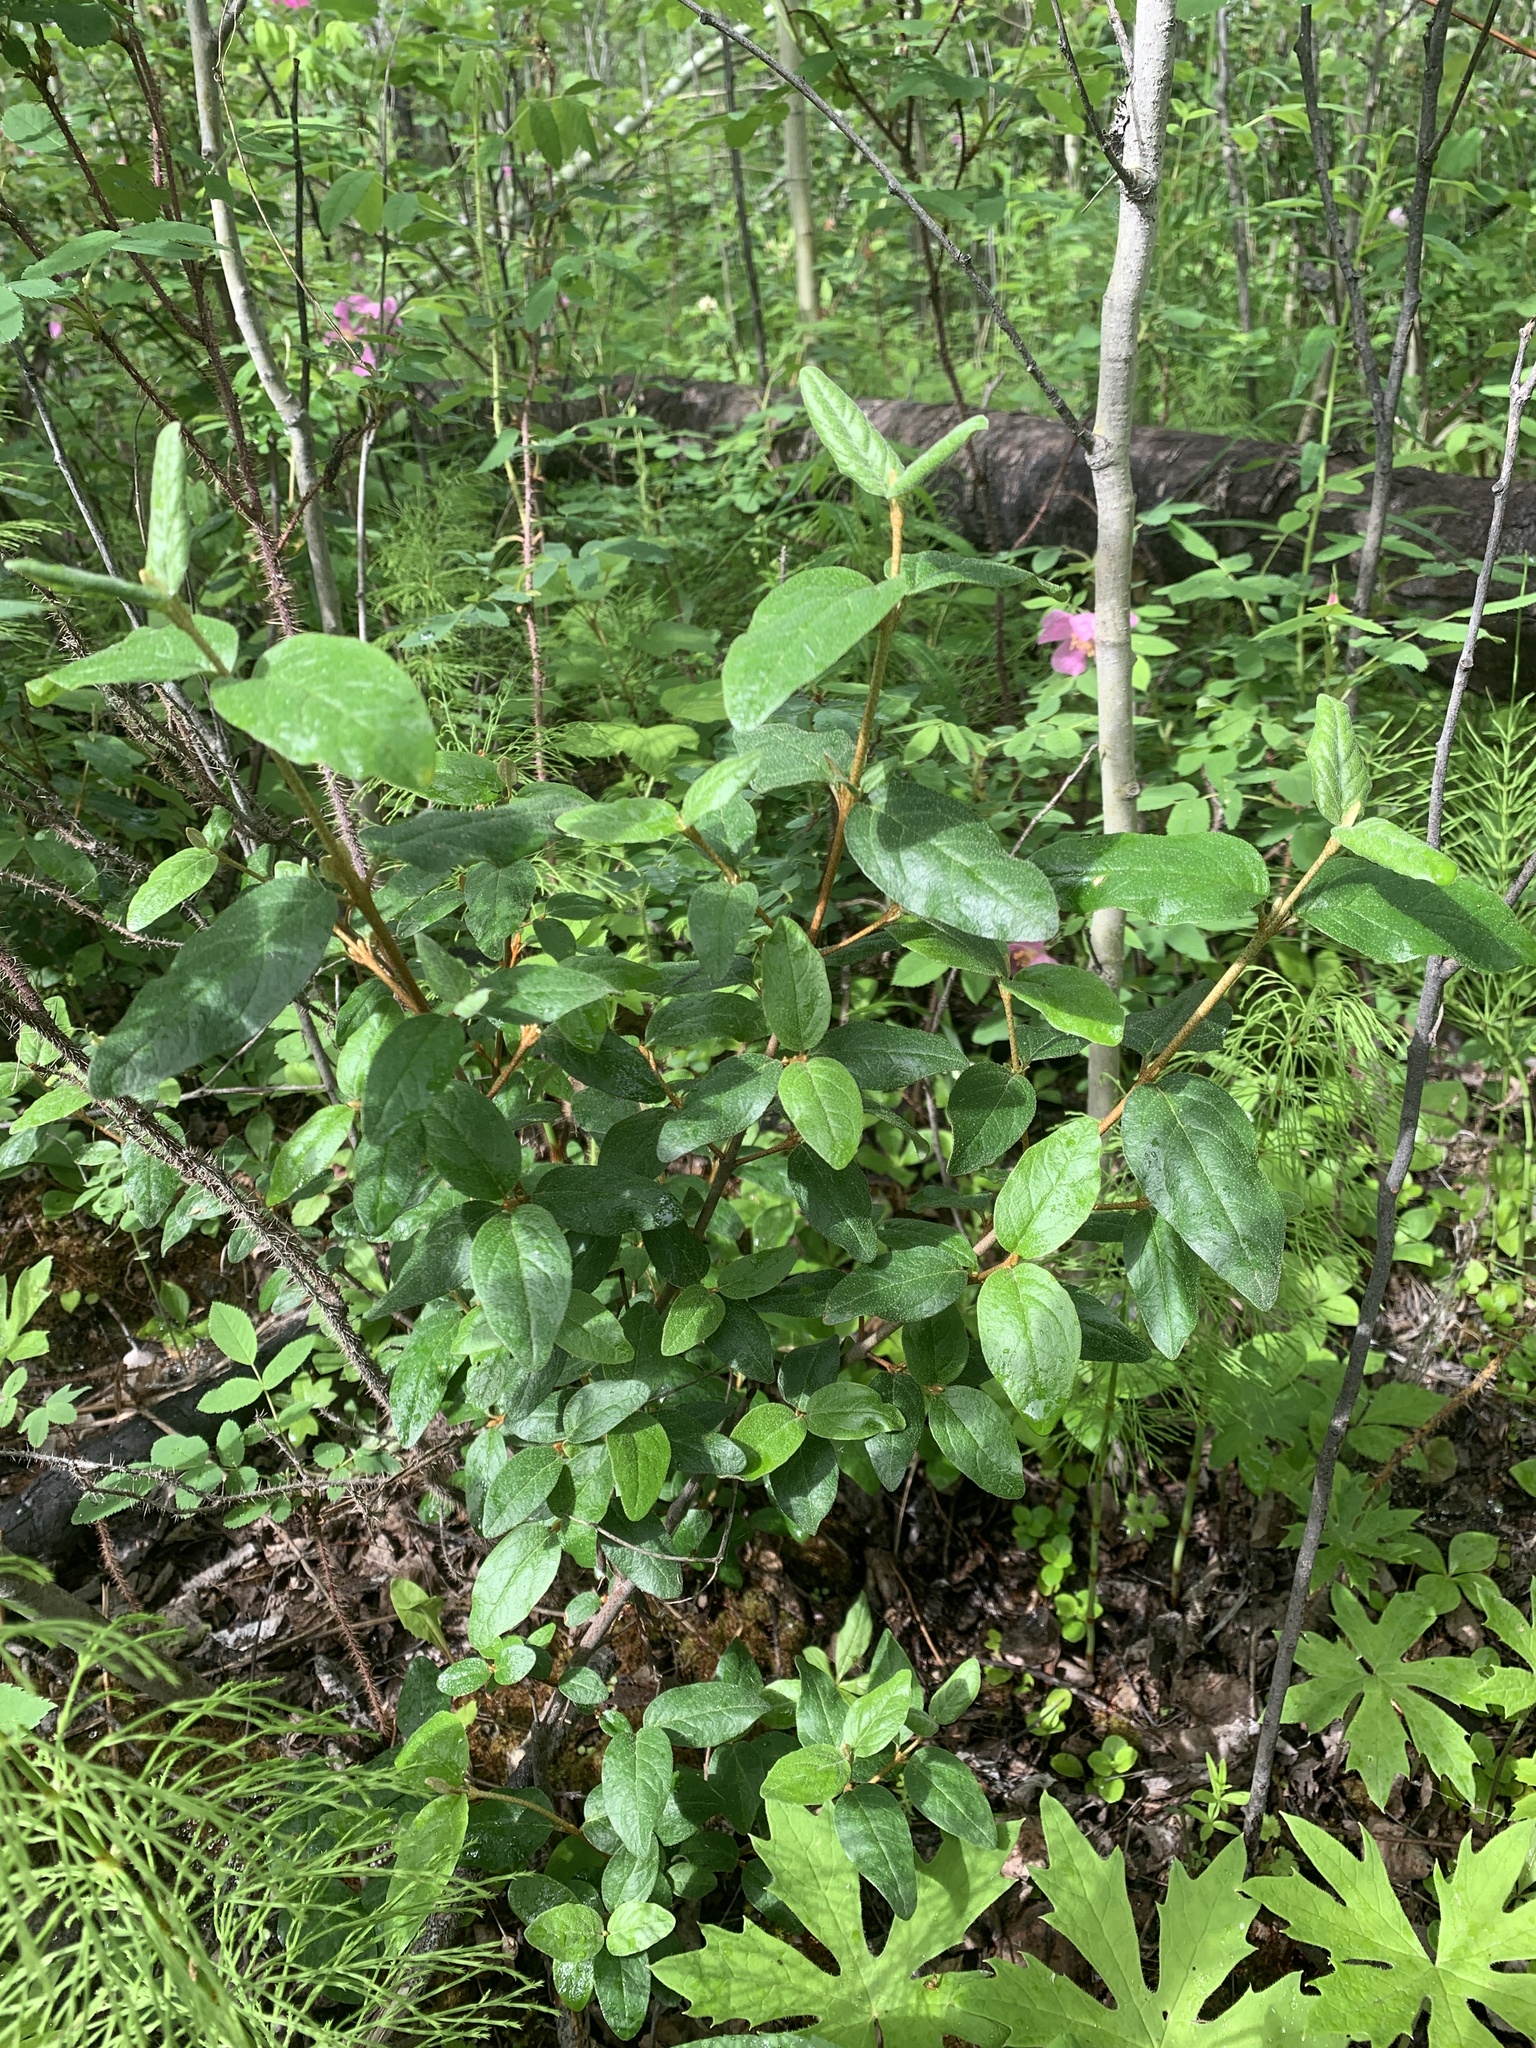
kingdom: Plantae
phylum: Tracheophyta
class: Magnoliopsida
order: Rosales
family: Elaeagnaceae
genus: Shepherdia
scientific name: Shepherdia canadensis
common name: Soapberry
